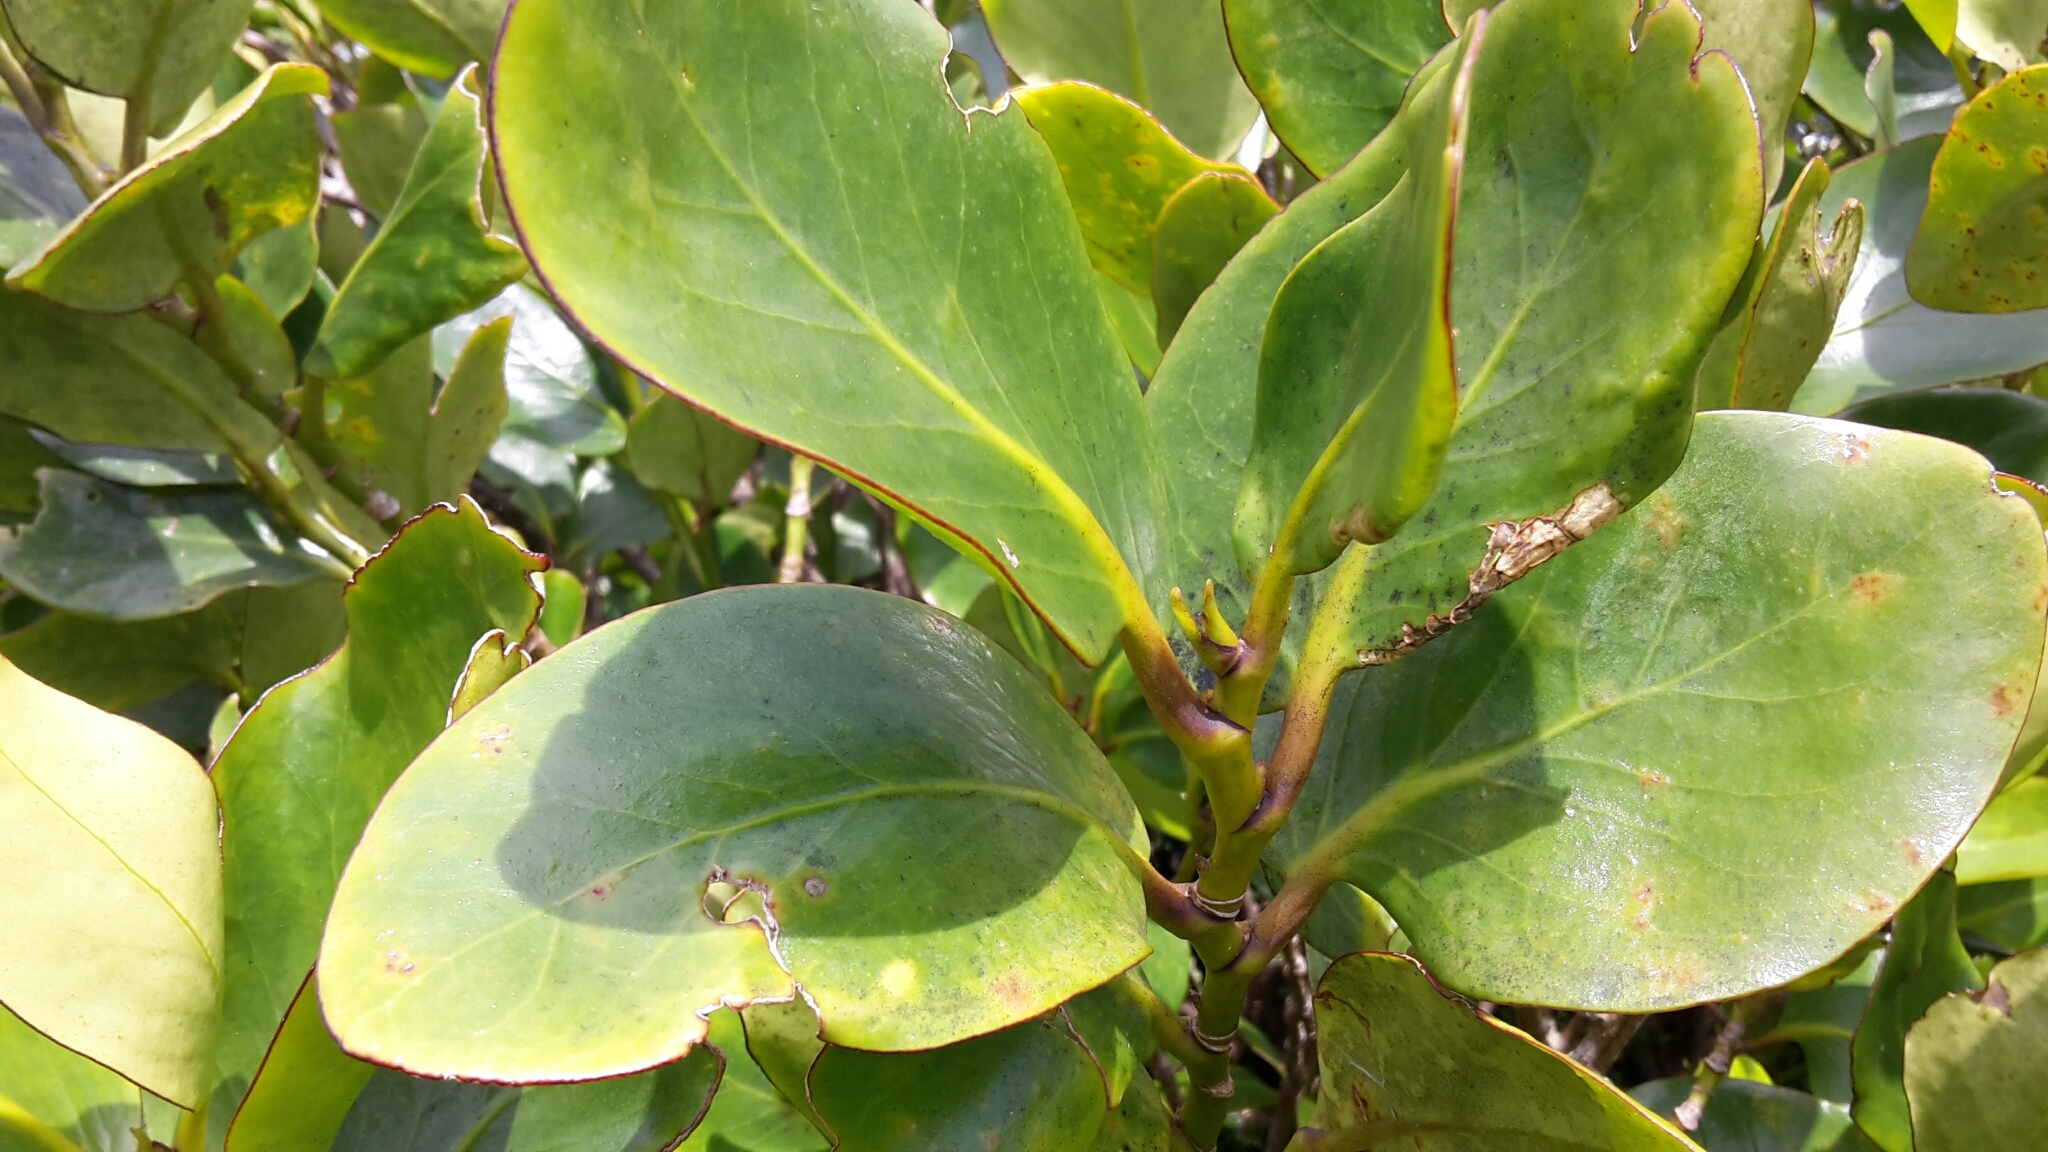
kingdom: Plantae
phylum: Tracheophyta
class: Magnoliopsida
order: Apiales
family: Griseliniaceae
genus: Griselinia
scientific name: Griselinia lucida
